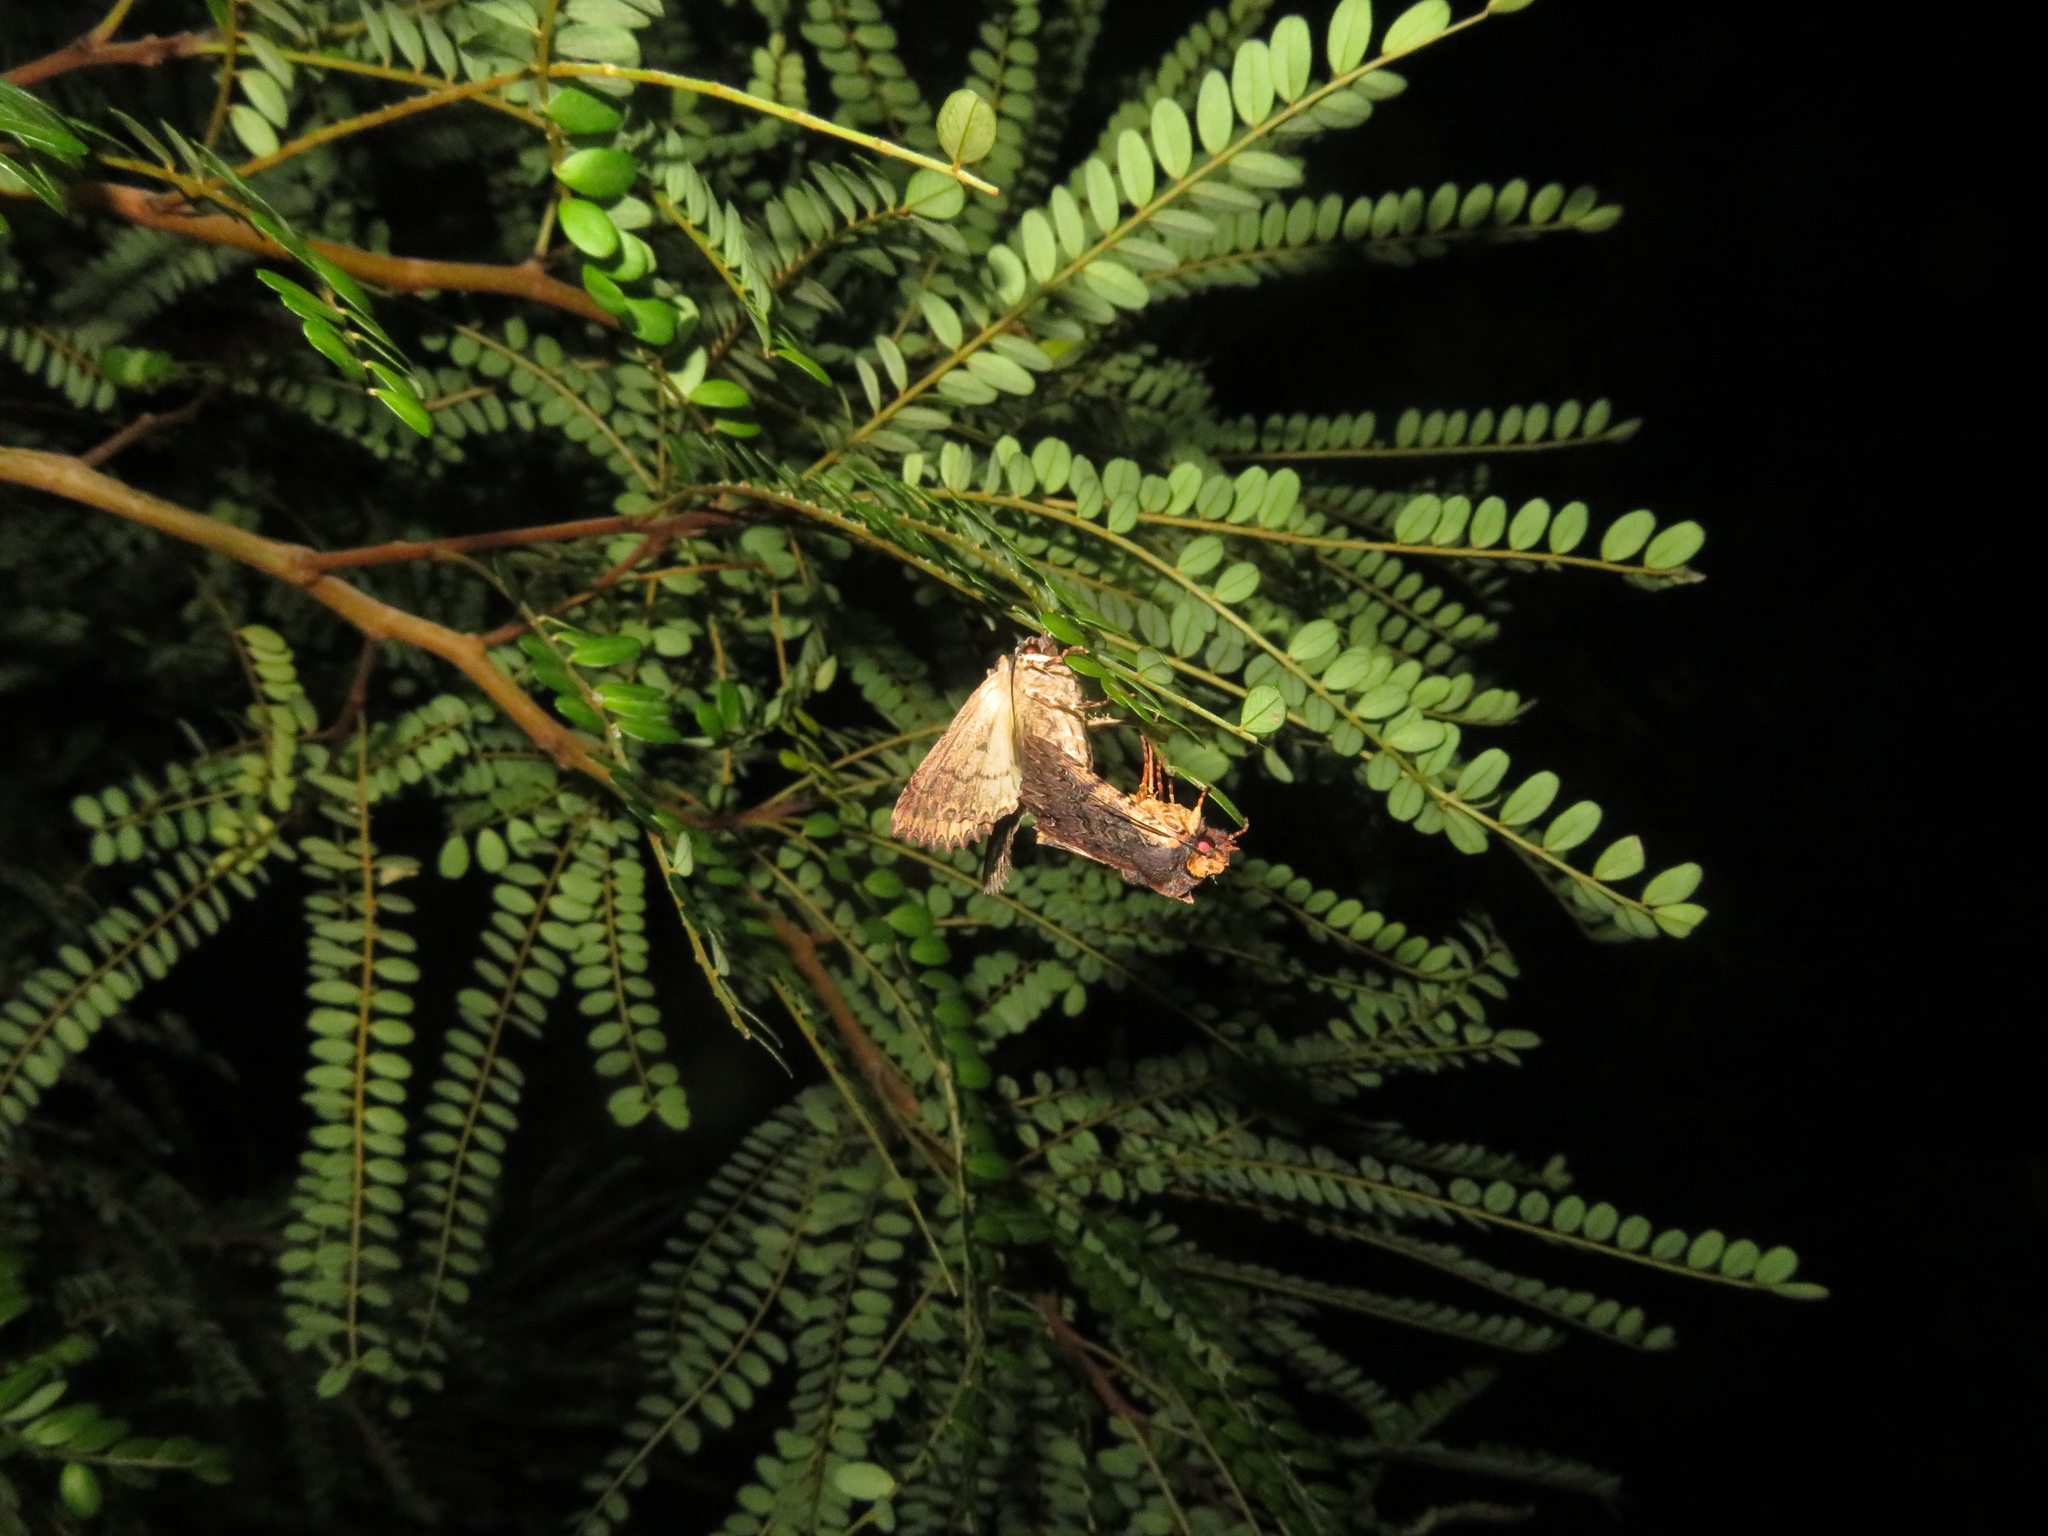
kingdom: Animalia
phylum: Arthropoda
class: Insecta
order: Lepidoptera
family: Noctuidae
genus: Meterana
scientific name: Meterana alcyone
